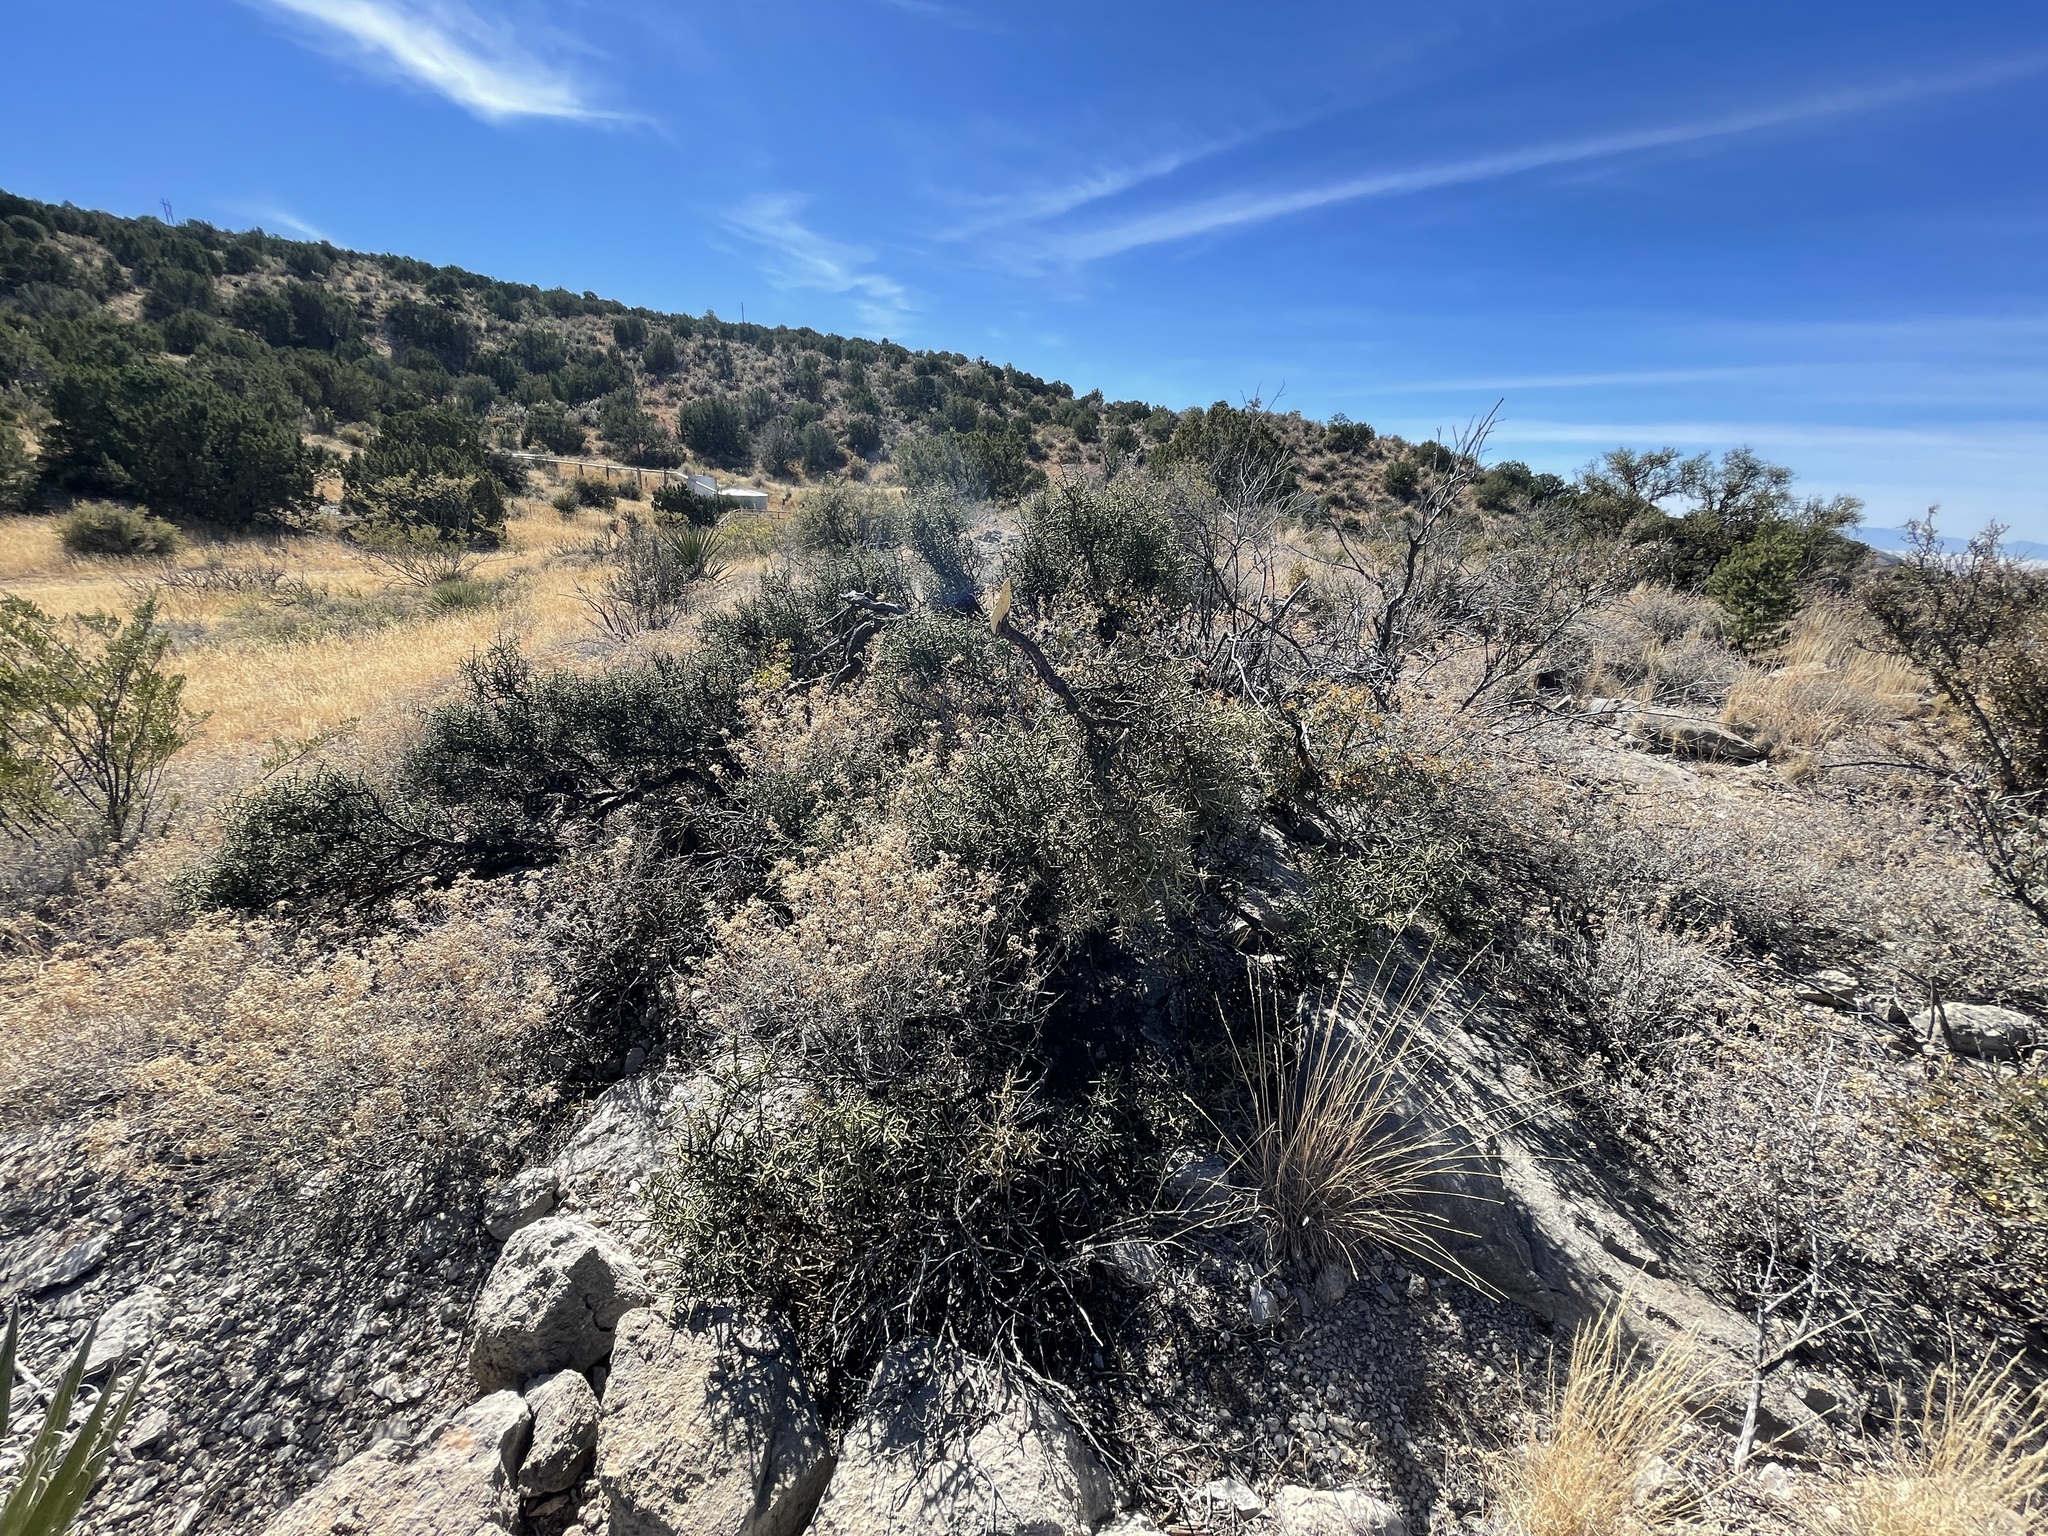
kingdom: Plantae
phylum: Tracheophyta
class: Magnoliopsida
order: Brassicales
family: Koeberliniaceae
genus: Koeberlinia
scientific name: Koeberlinia spinosa
